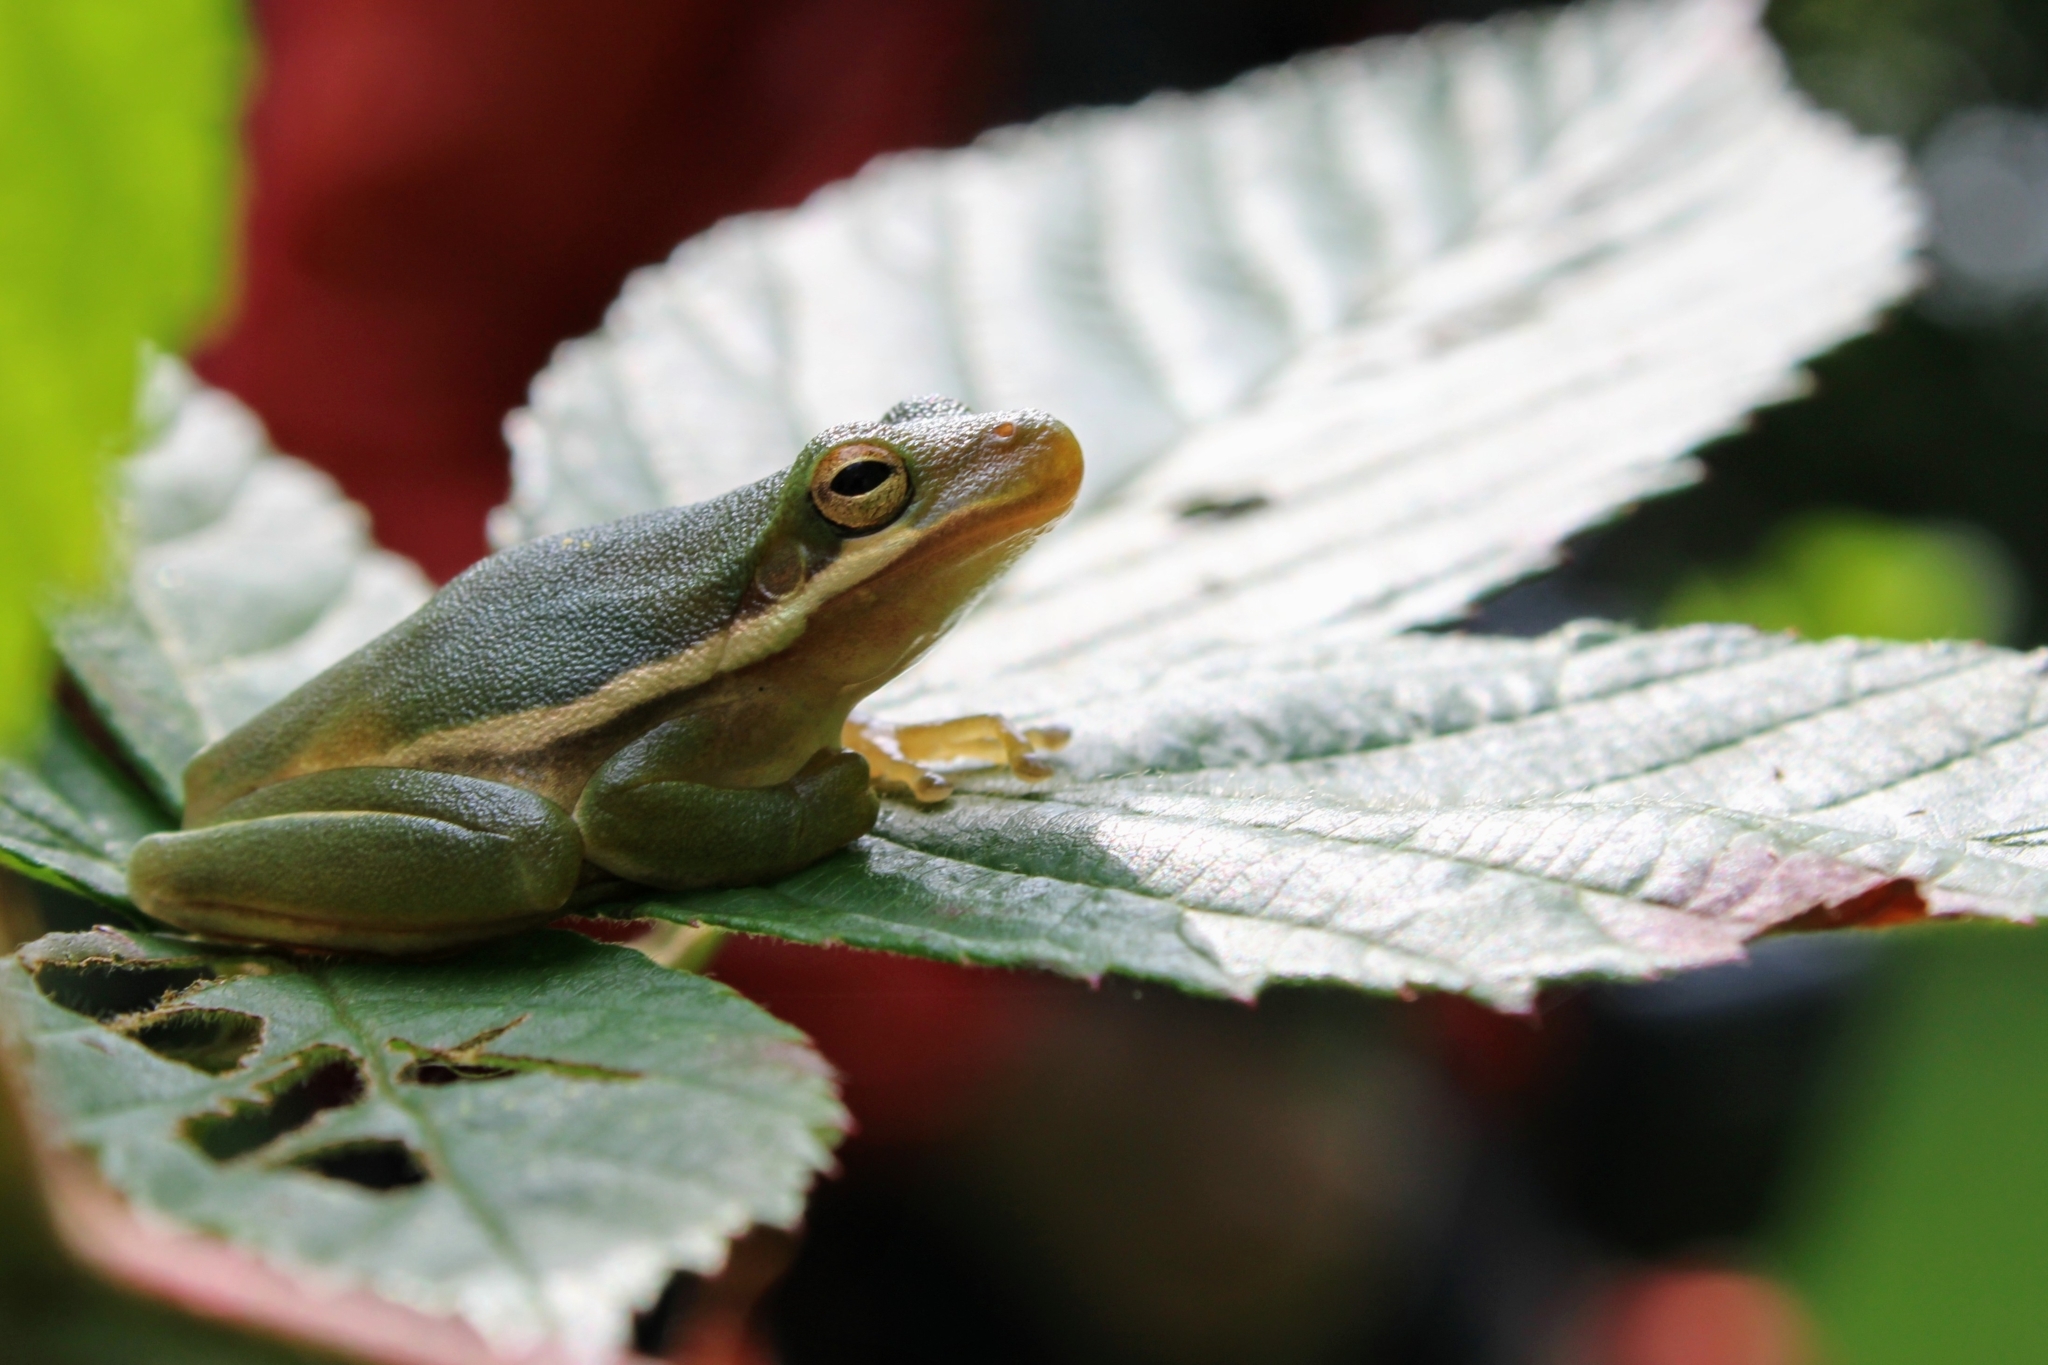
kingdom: Animalia
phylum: Chordata
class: Amphibia
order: Anura
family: Hylidae
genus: Dryophytes
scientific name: Dryophytes cinereus
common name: Green treefrog
